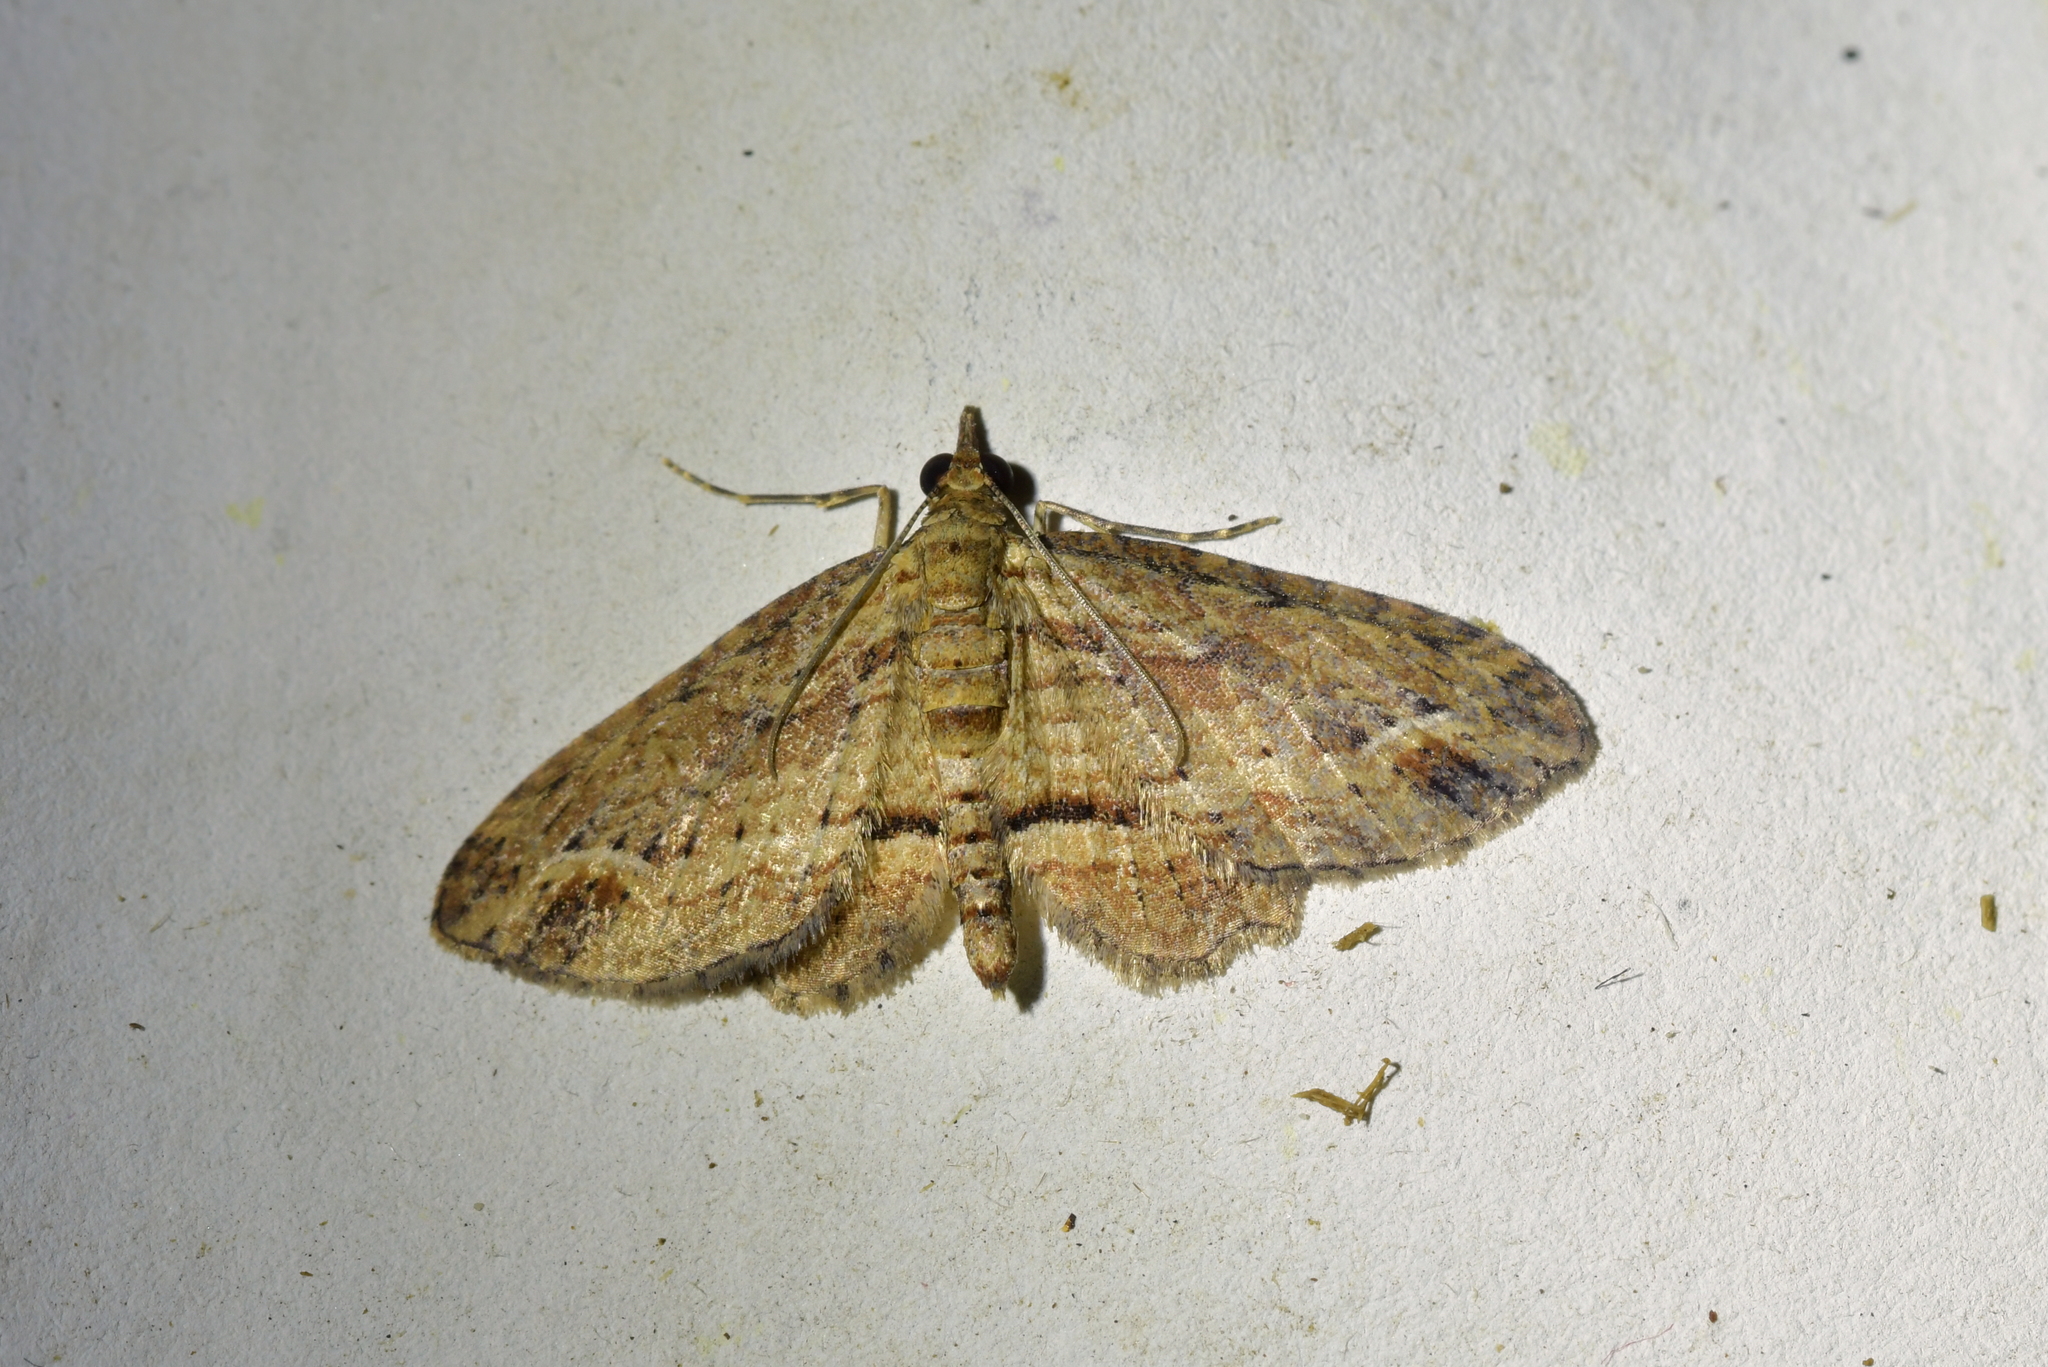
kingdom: Animalia
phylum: Arthropoda
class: Insecta
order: Lepidoptera
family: Geometridae
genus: Chloroclystis
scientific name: Chloroclystis filata
